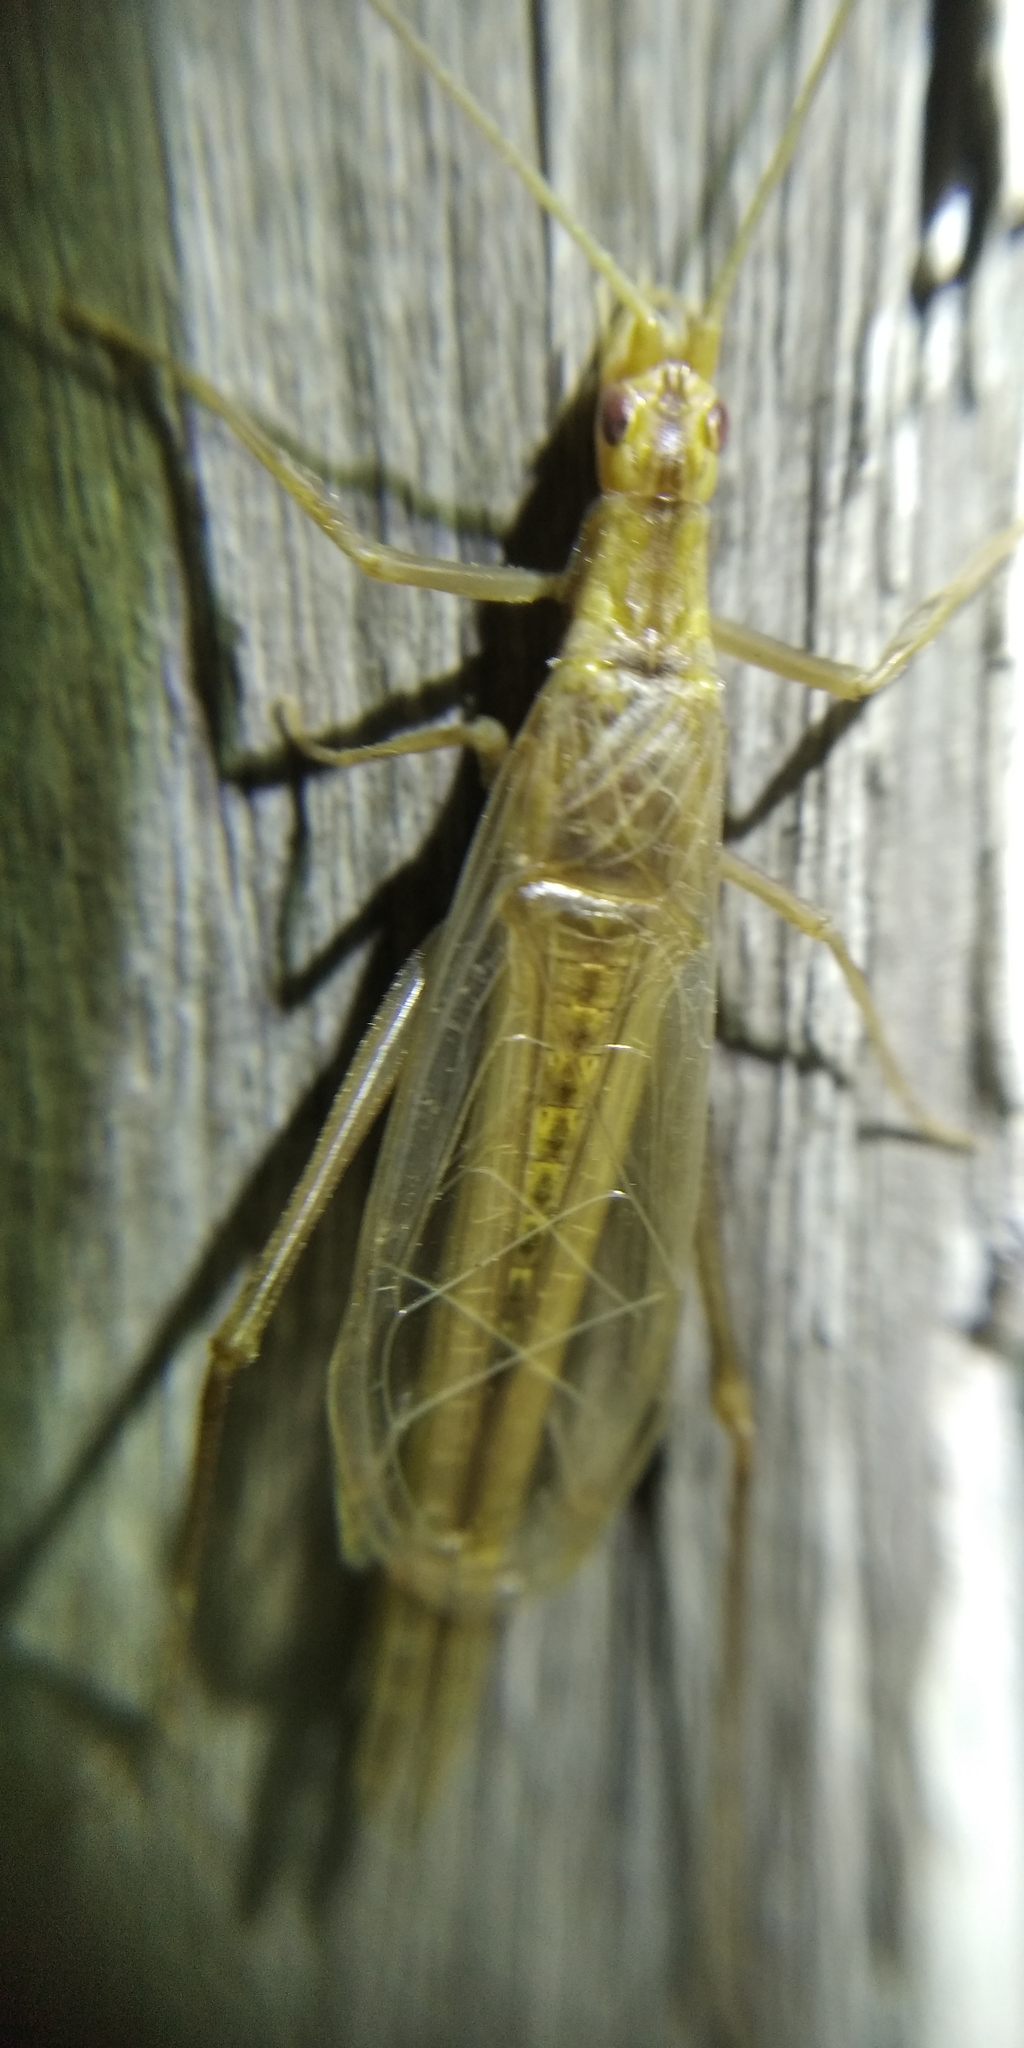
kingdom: Animalia
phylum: Arthropoda
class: Insecta
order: Orthoptera
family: Gryllidae
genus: Oecanthus
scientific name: Oecanthus pellucens
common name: Tree-cricket
